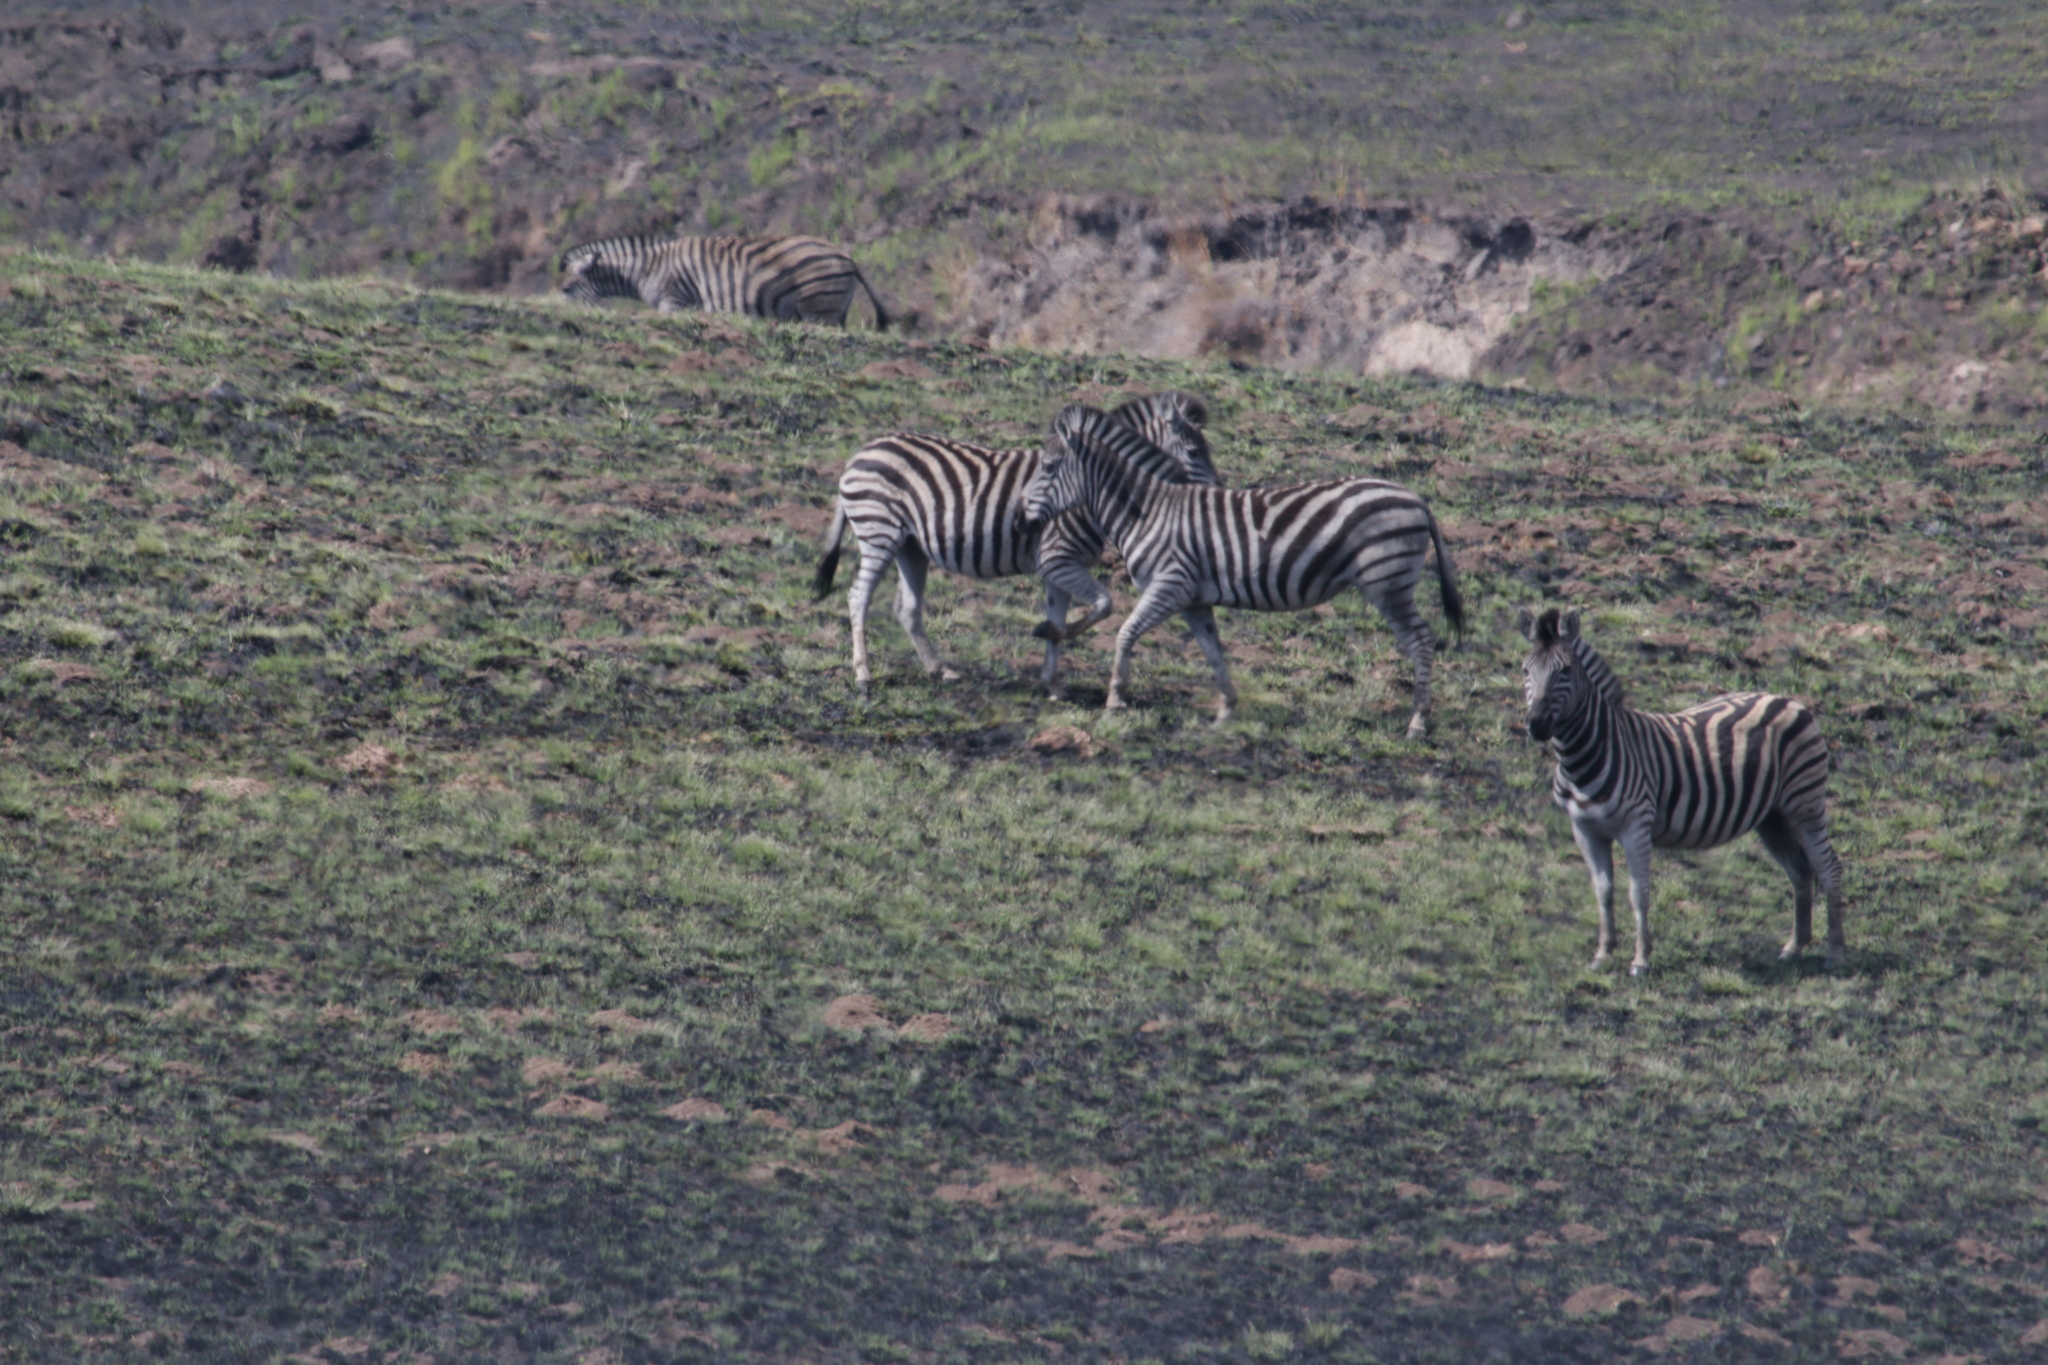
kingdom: Animalia
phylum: Chordata
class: Mammalia
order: Perissodactyla
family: Equidae
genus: Equus
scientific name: Equus quagga
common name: Plains zebra
